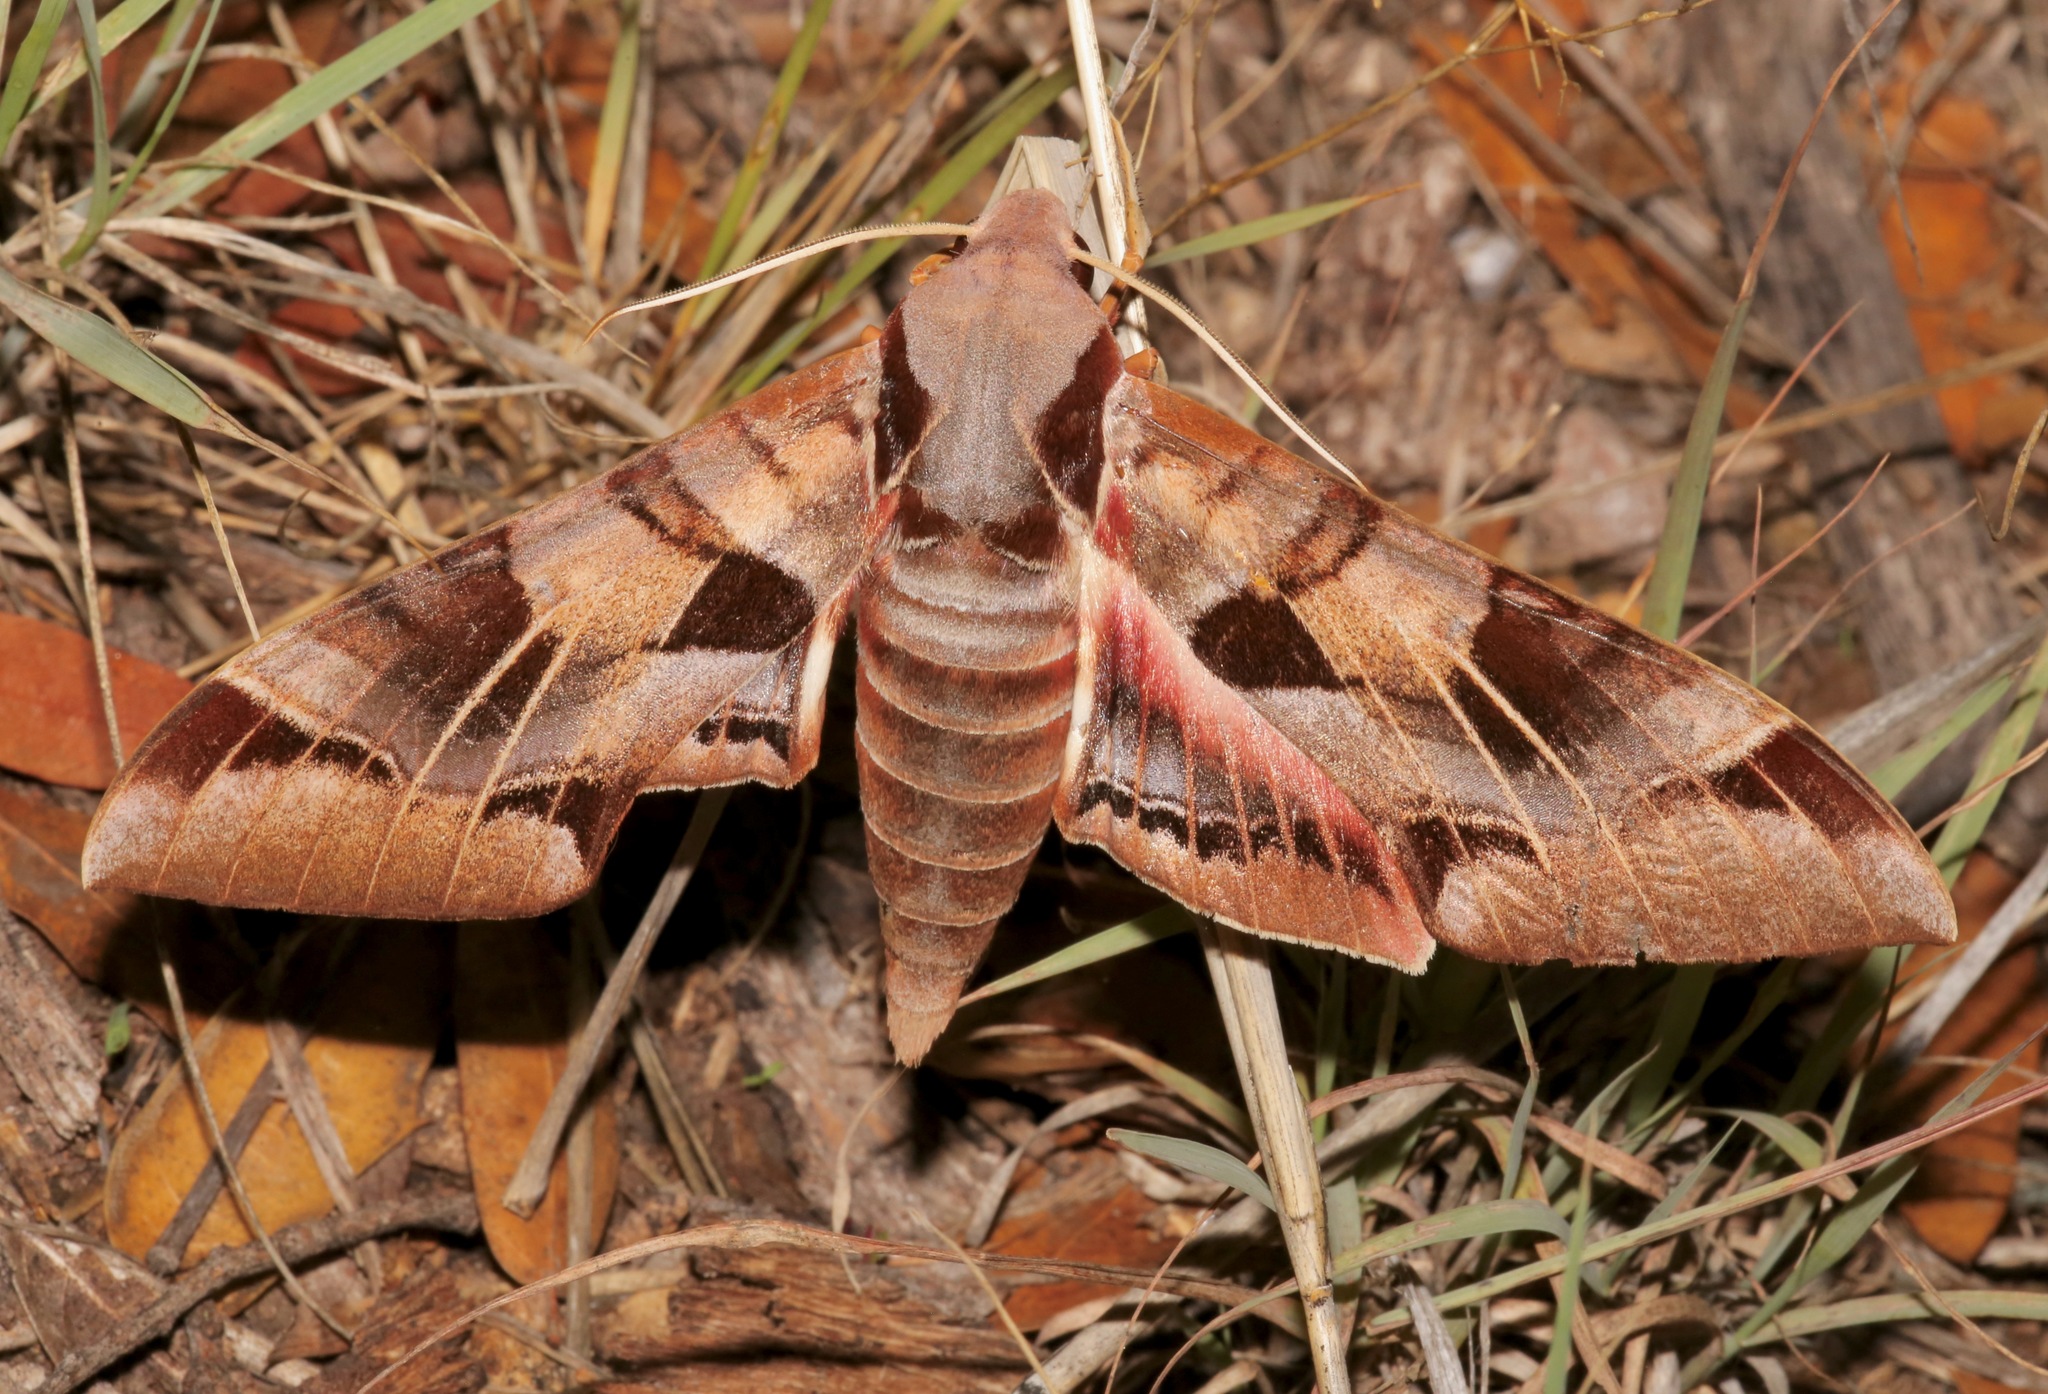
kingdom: Animalia
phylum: Arthropoda
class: Insecta
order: Lepidoptera
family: Sphingidae
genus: Eumorpha
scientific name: Eumorpha typhon
